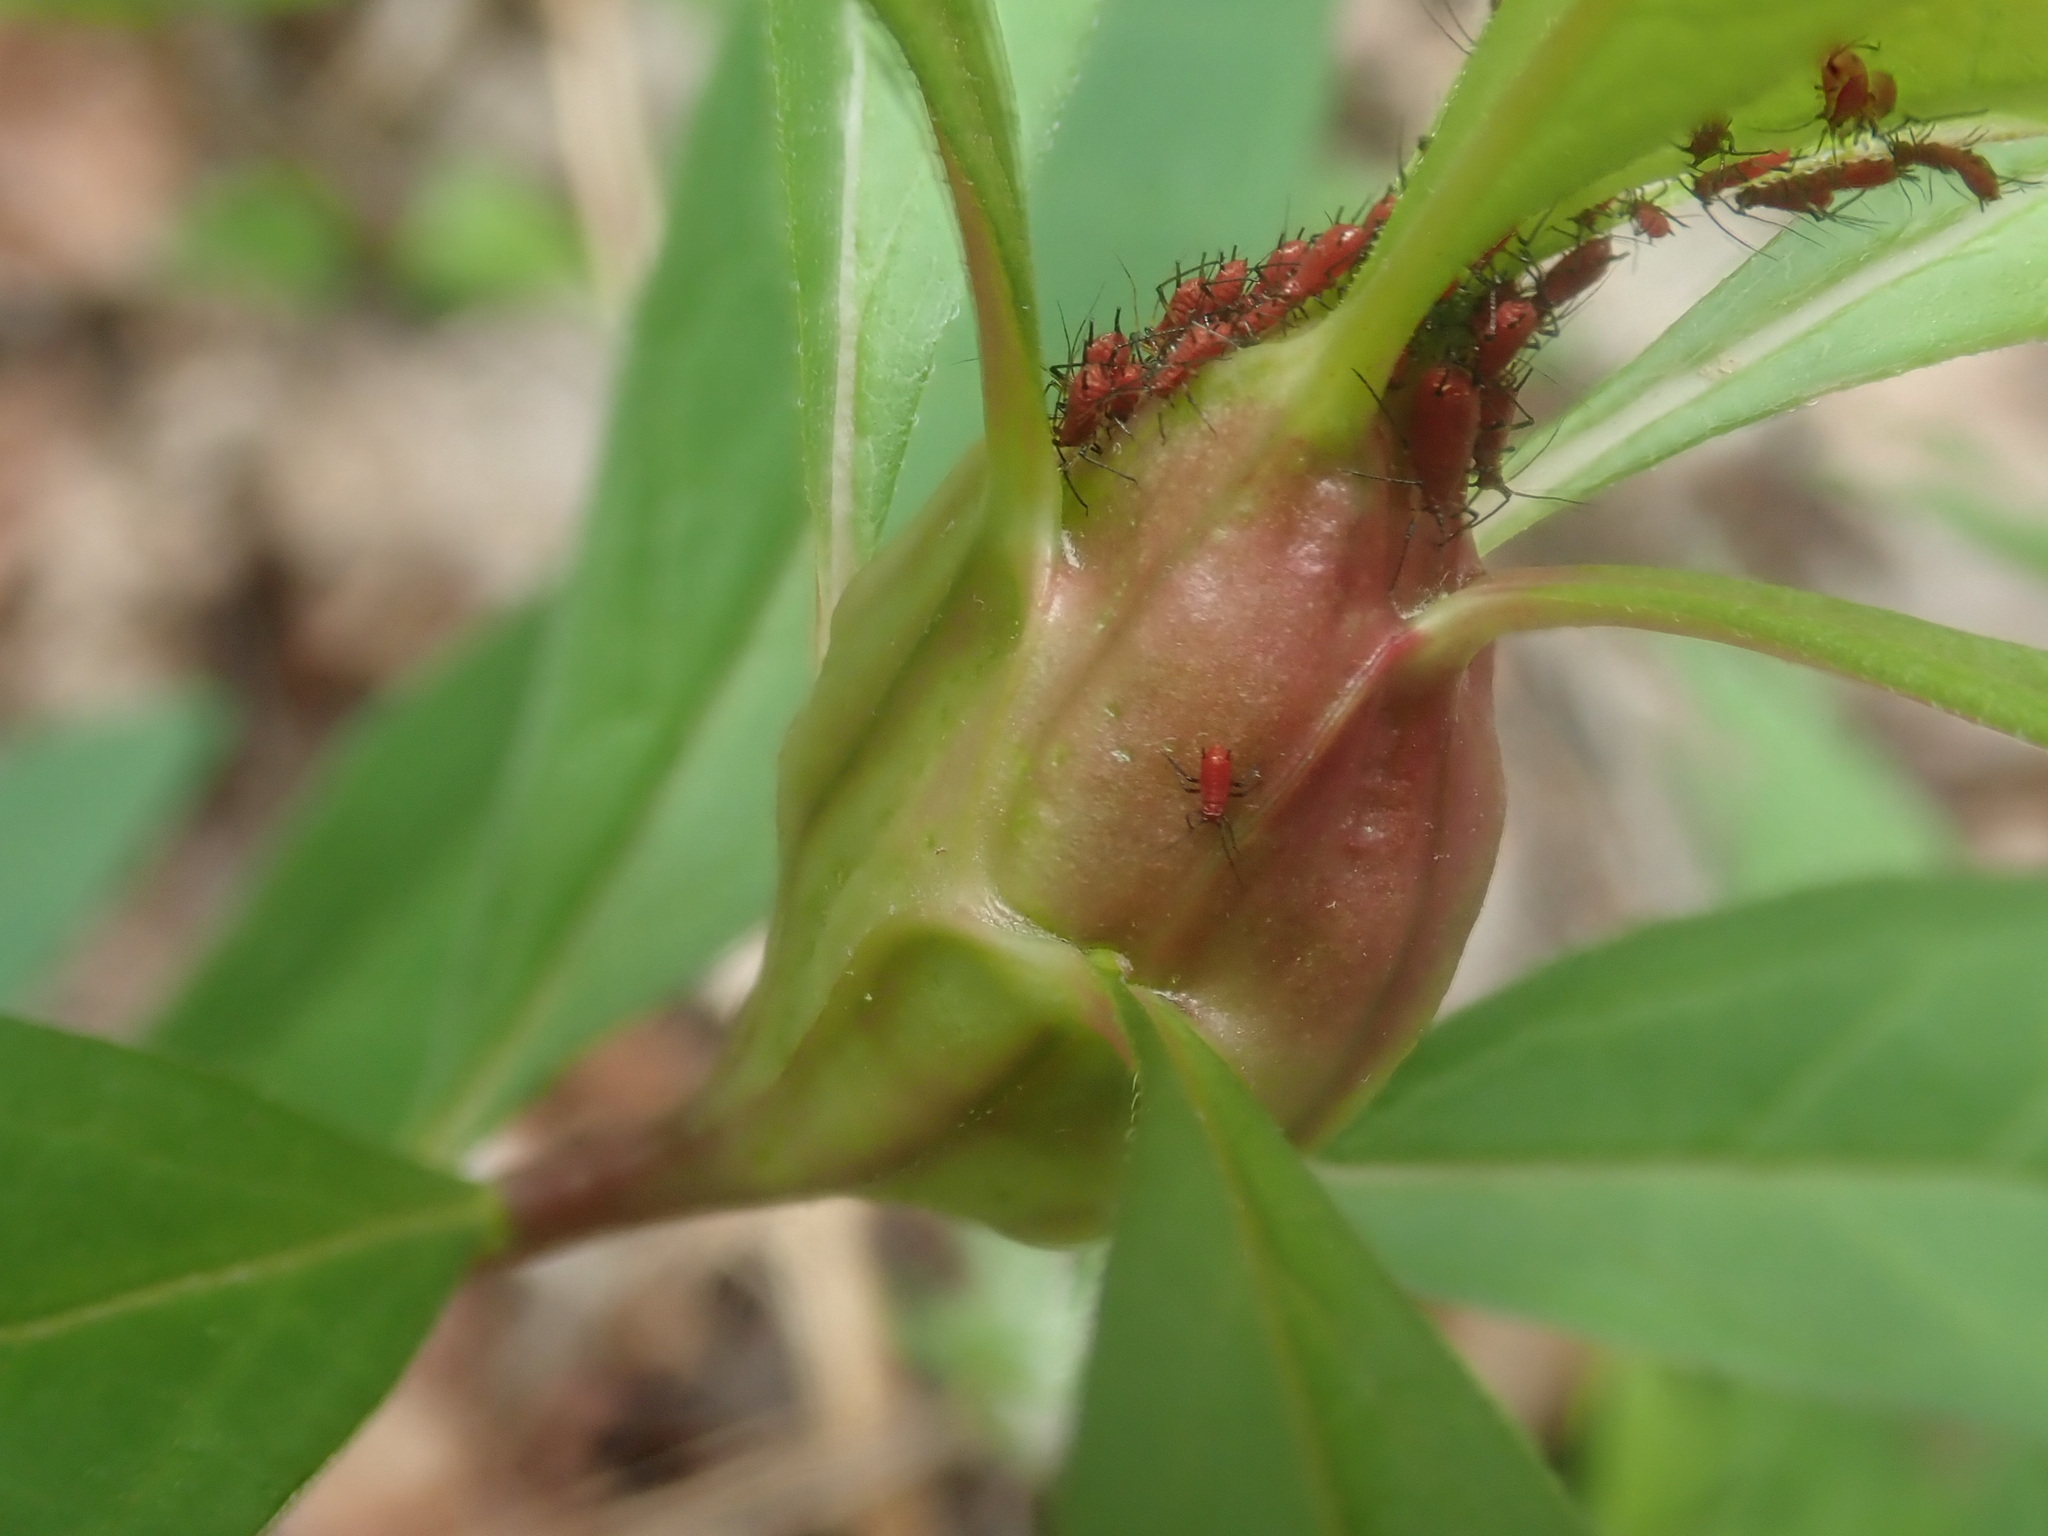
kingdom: Animalia
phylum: Arthropoda
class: Insecta
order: Lepidoptera
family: Gelechiidae
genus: Gnorimoschema
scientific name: Gnorimoschema
